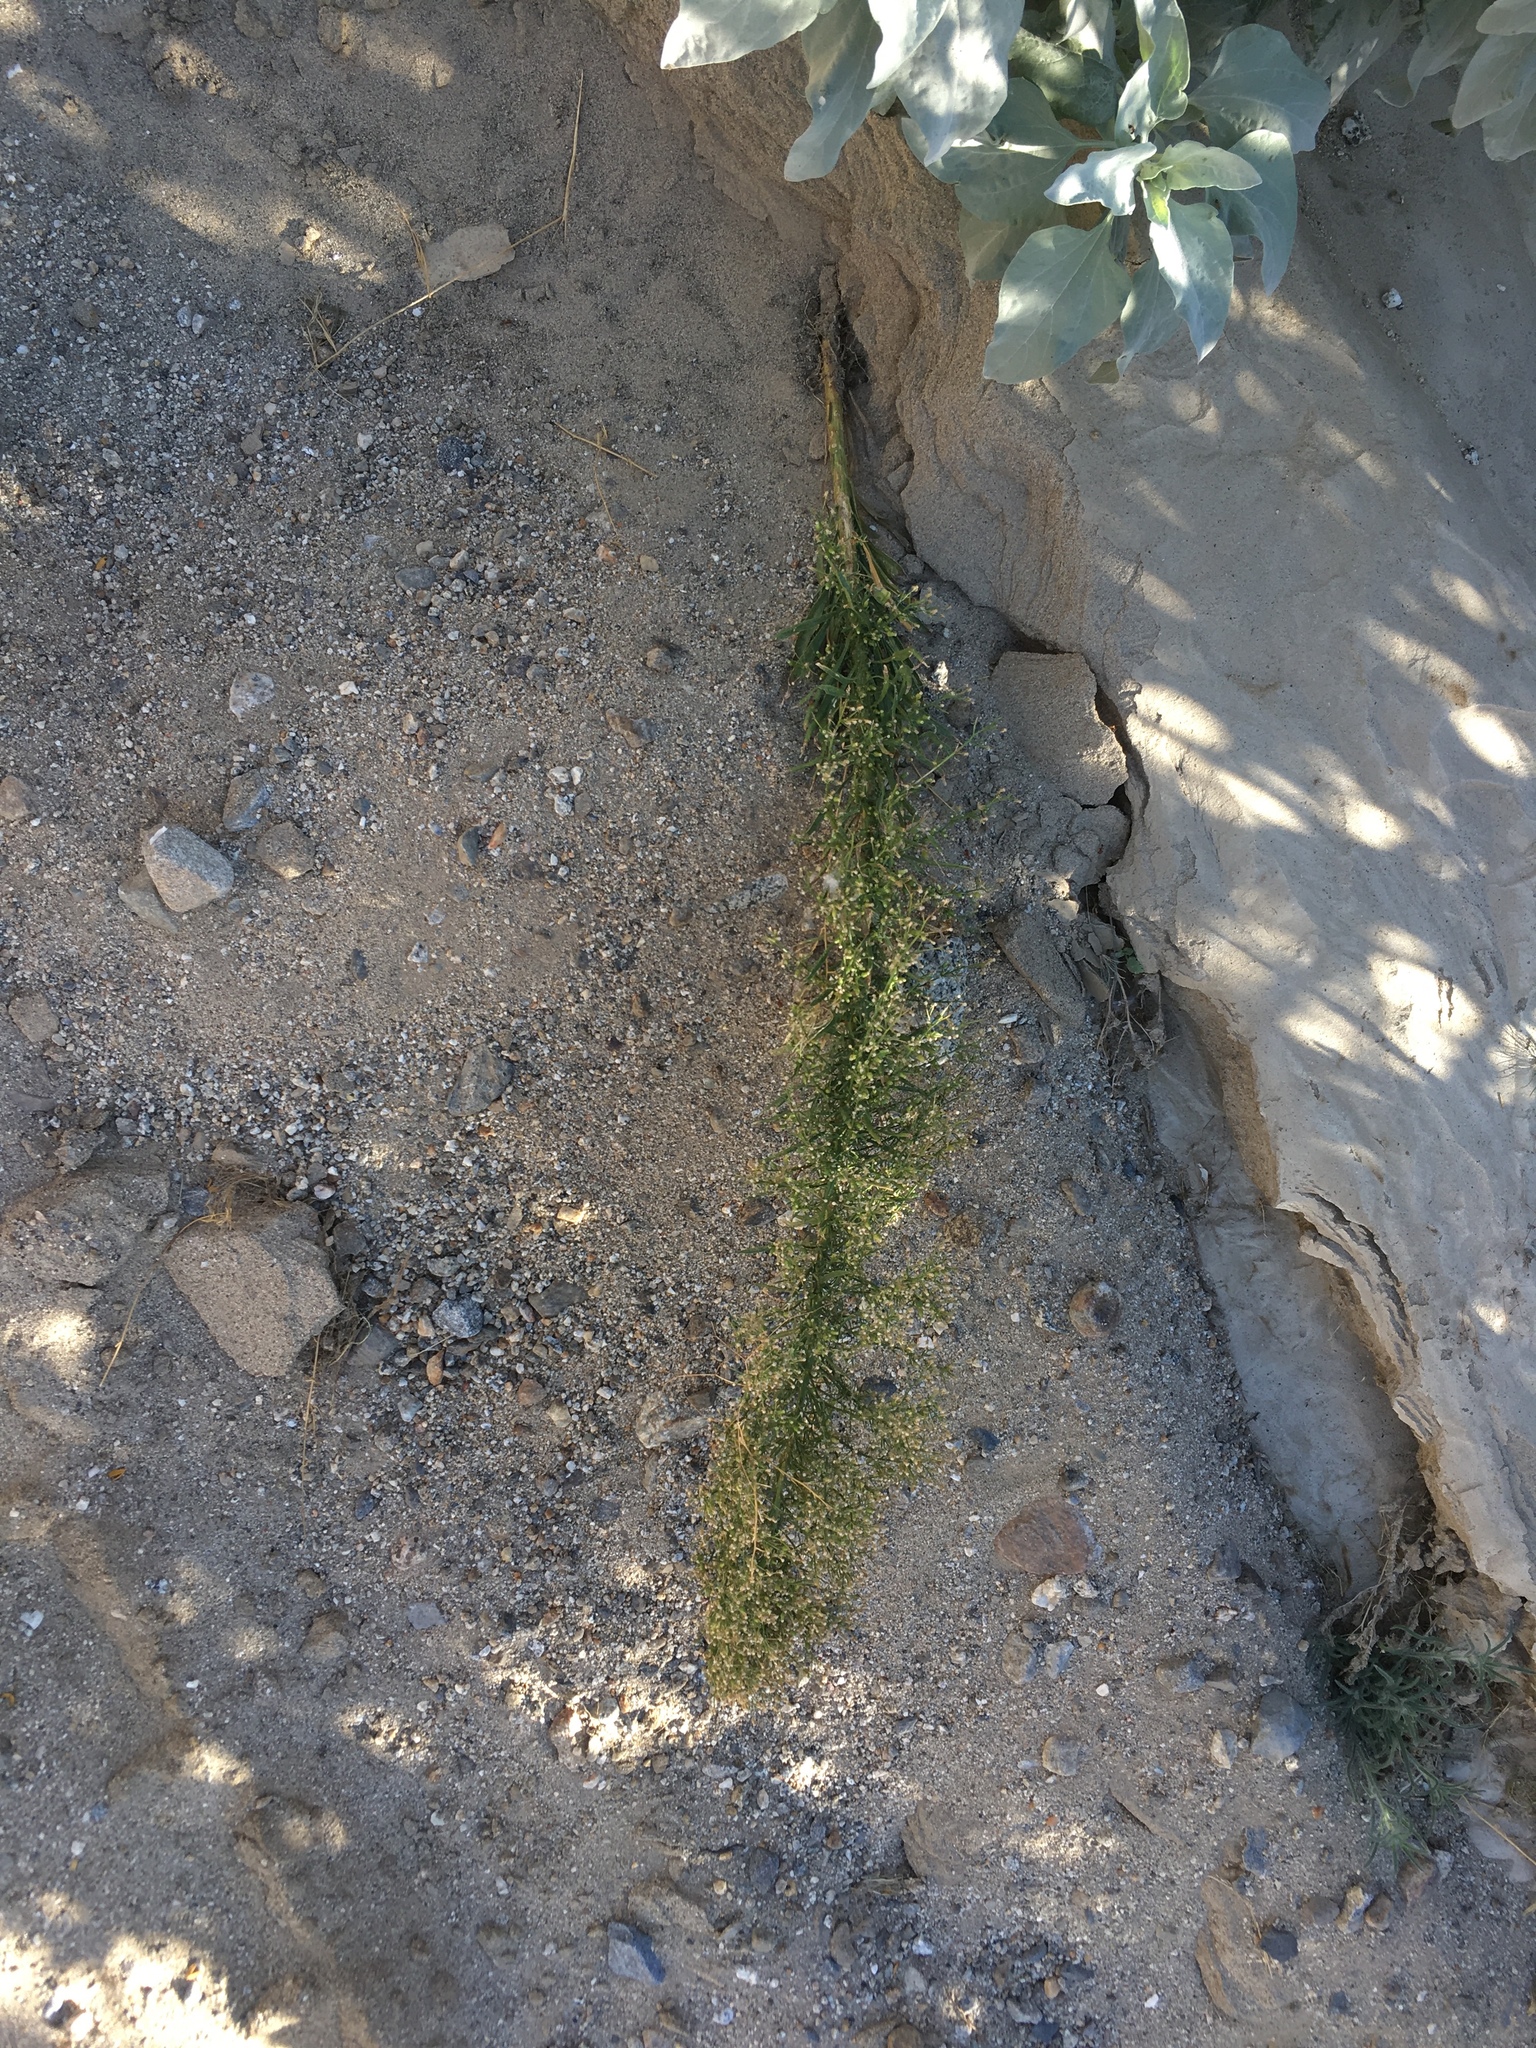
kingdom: Plantae
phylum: Tracheophyta
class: Magnoliopsida
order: Asterales
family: Asteraceae
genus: Erigeron
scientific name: Erigeron canadensis
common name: Canadian fleabane
